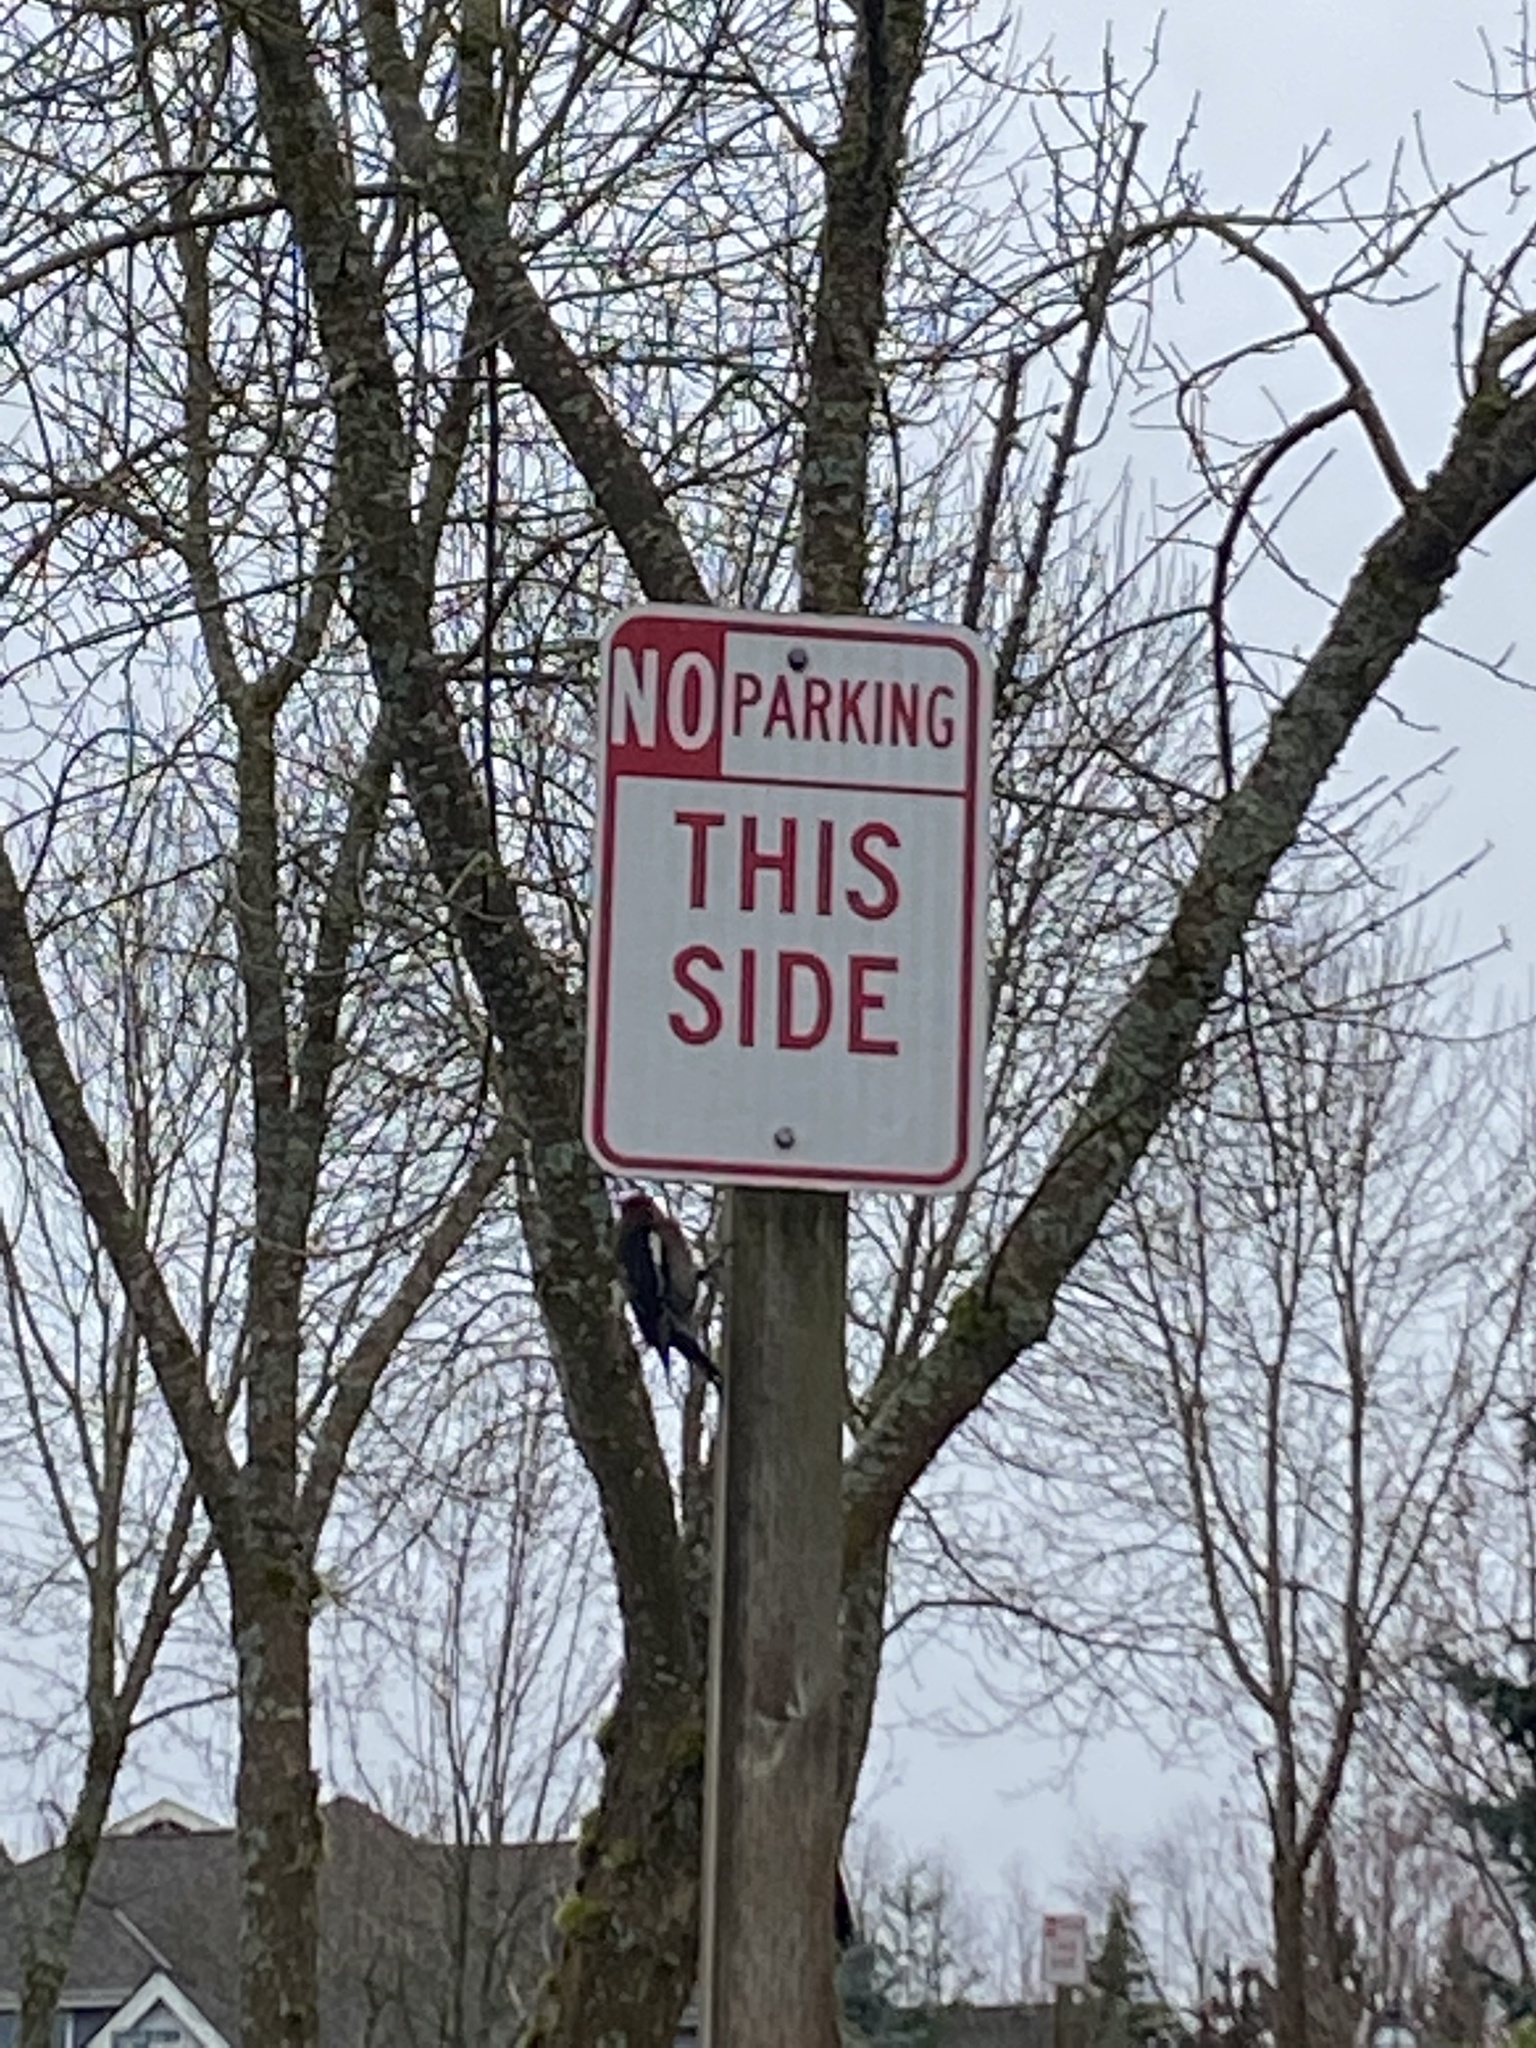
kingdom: Animalia
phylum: Chordata
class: Aves
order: Piciformes
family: Picidae
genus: Sphyrapicus
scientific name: Sphyrapicus ruber
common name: Red-breasted sapsucker
